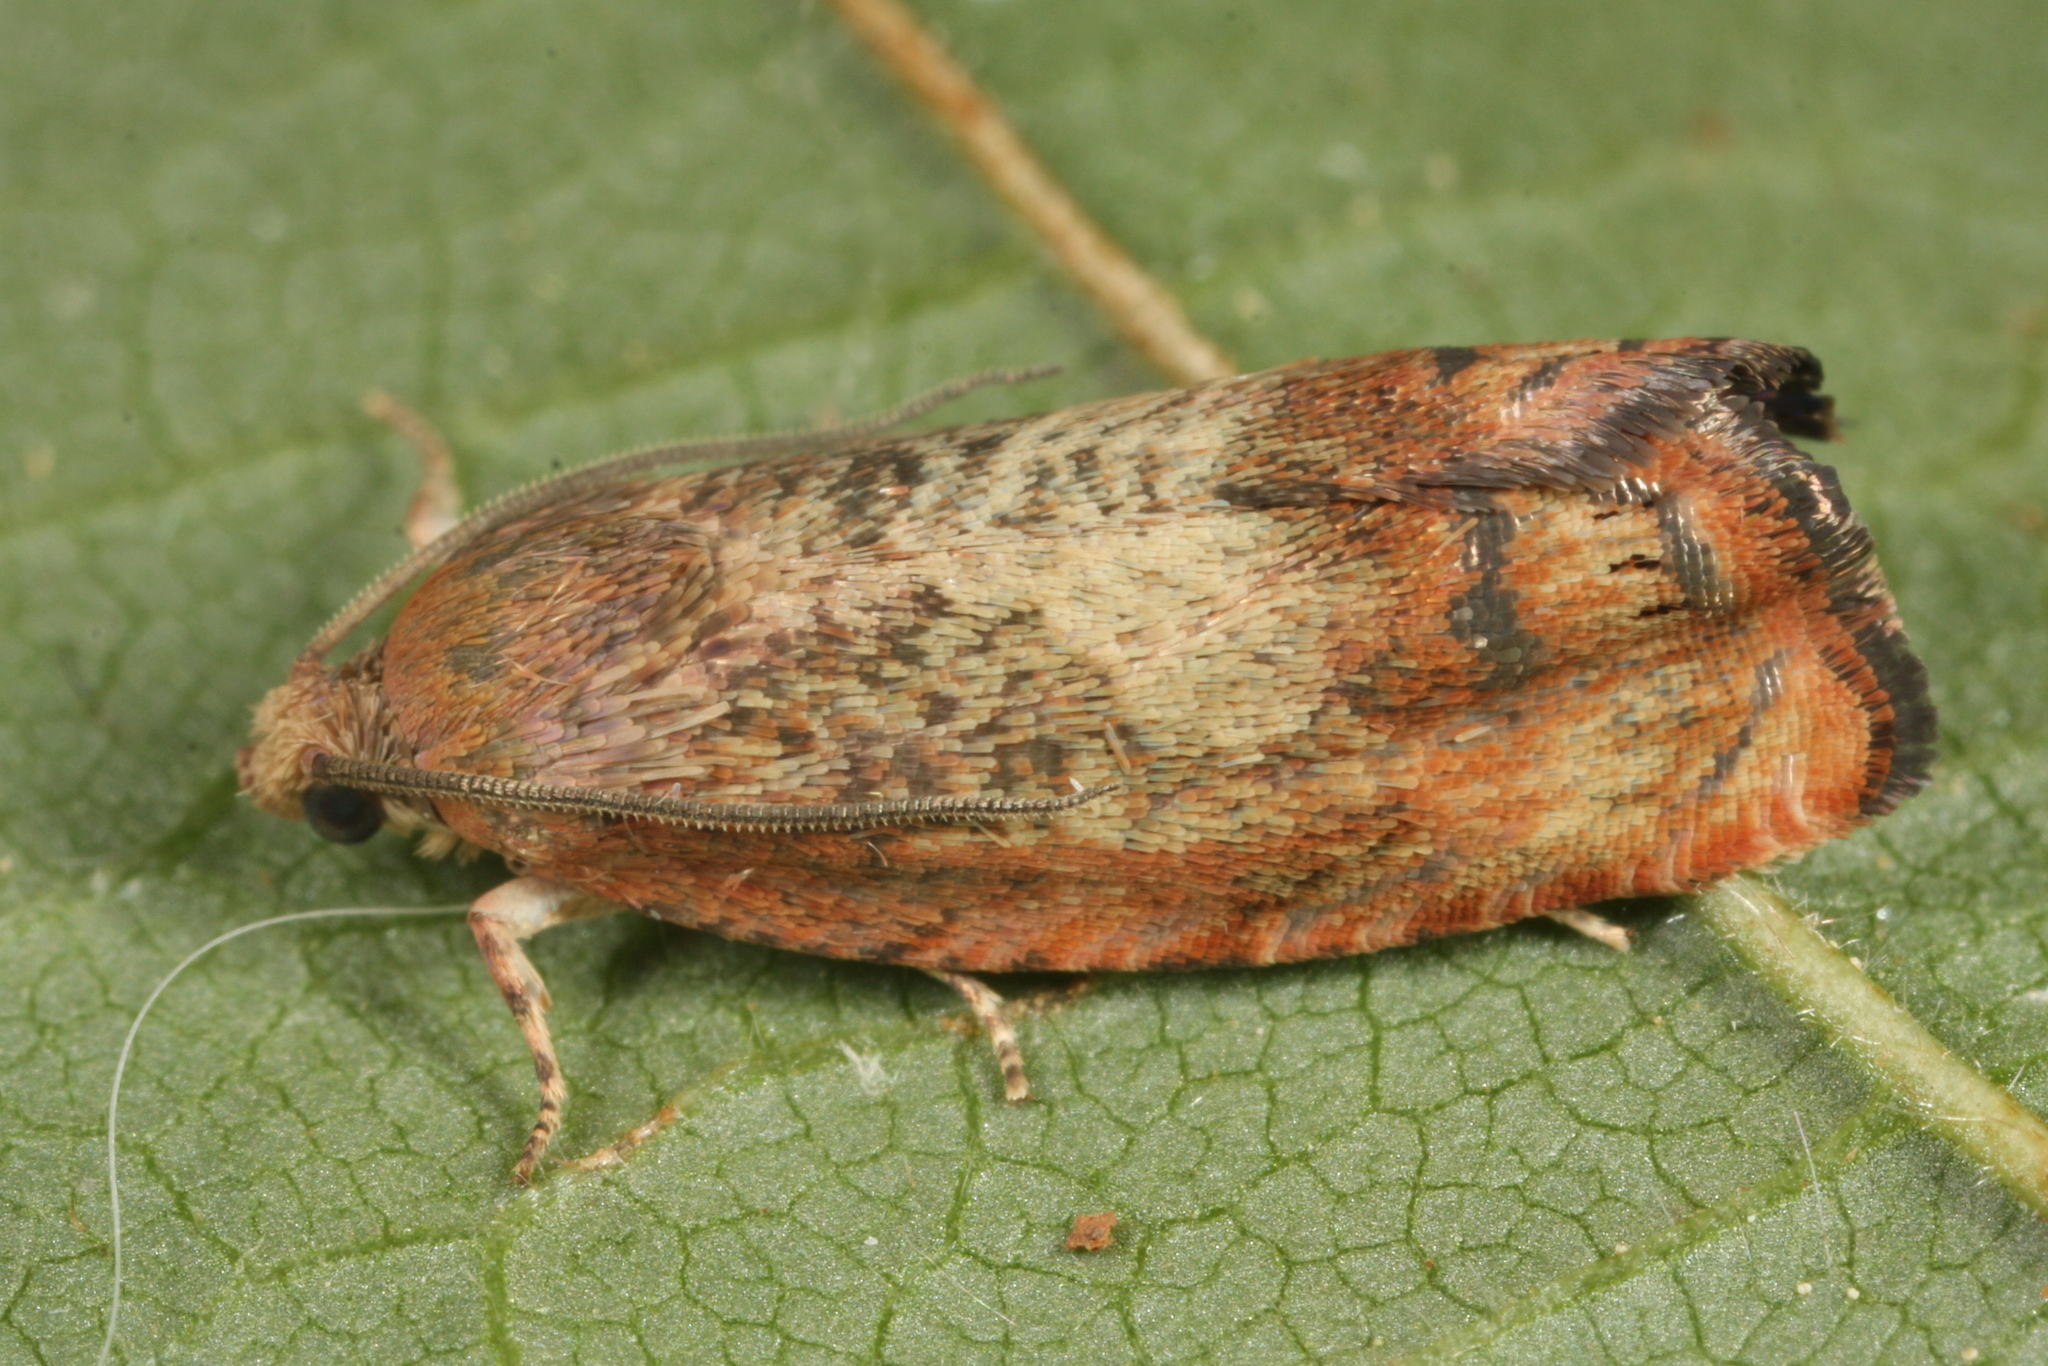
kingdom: Animalia
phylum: Arthropoda
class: Insecta
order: Lepidoptera
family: Tortricidae
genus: Cydia
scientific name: Cydia amplana
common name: Vagrant piercer
